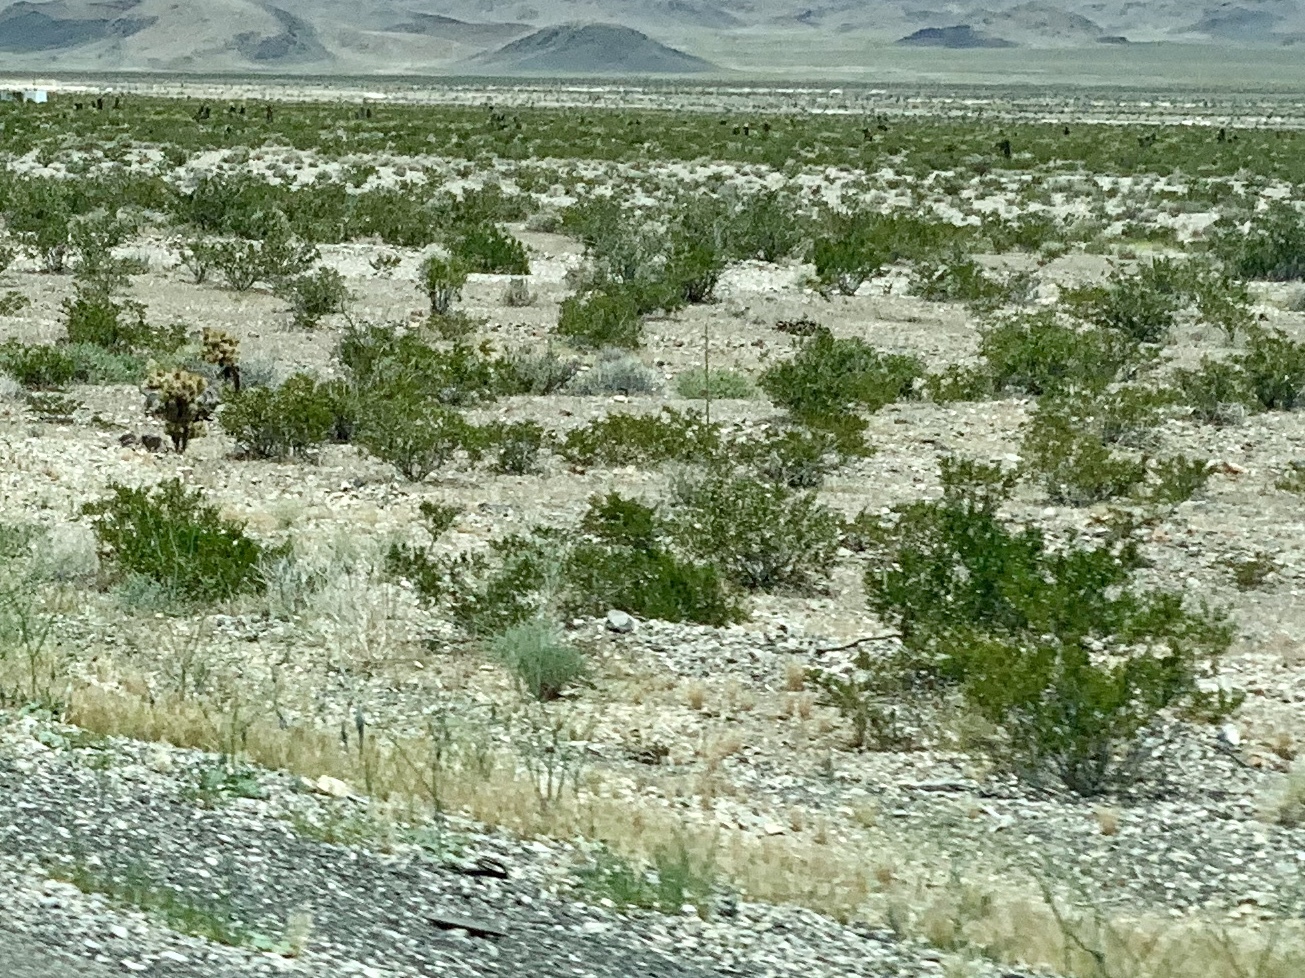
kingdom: Plantae
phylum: Tracheophyta
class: Magnoliopsida
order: Zygophyllales
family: Zygophyllaceae
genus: Larrea
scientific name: Larrea tridentata
